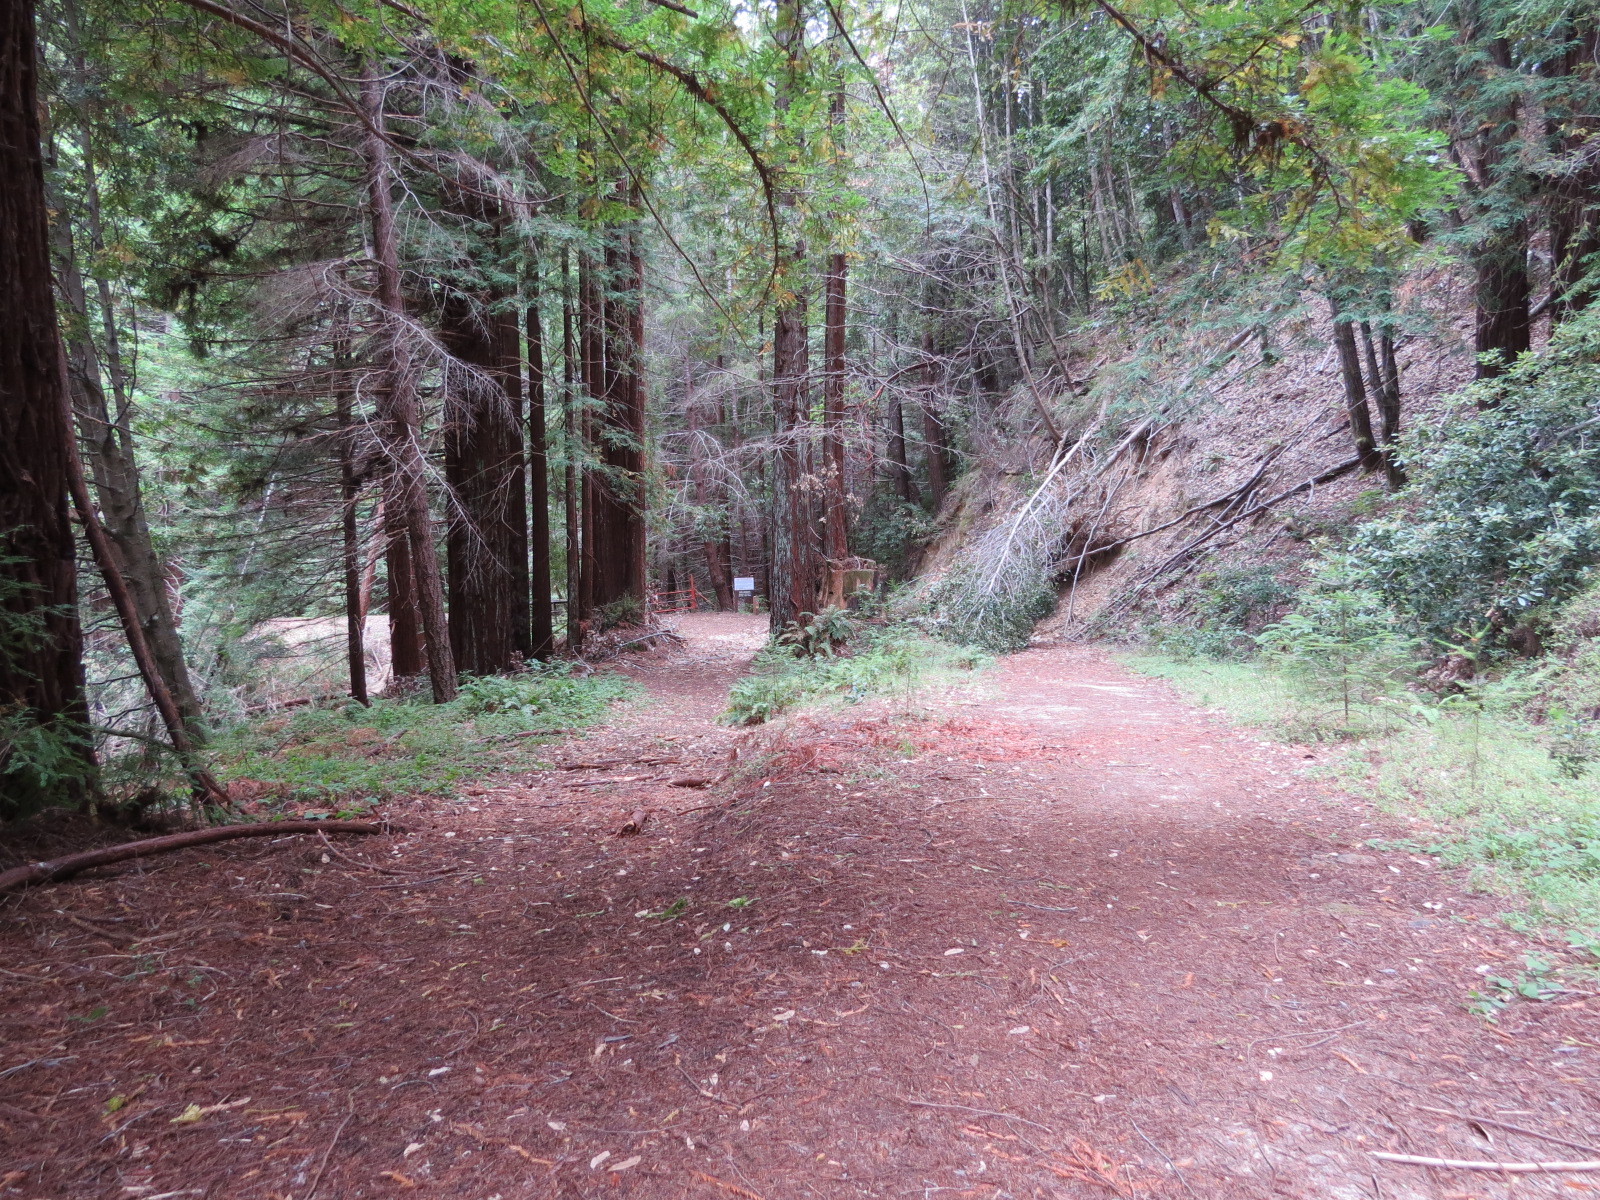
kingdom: Plantae
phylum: Tracheophyta
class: Pinopsida
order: Pinales
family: Cupressaceae
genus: Sequoia
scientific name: Sequoia sempervirens
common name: Coast redwood
